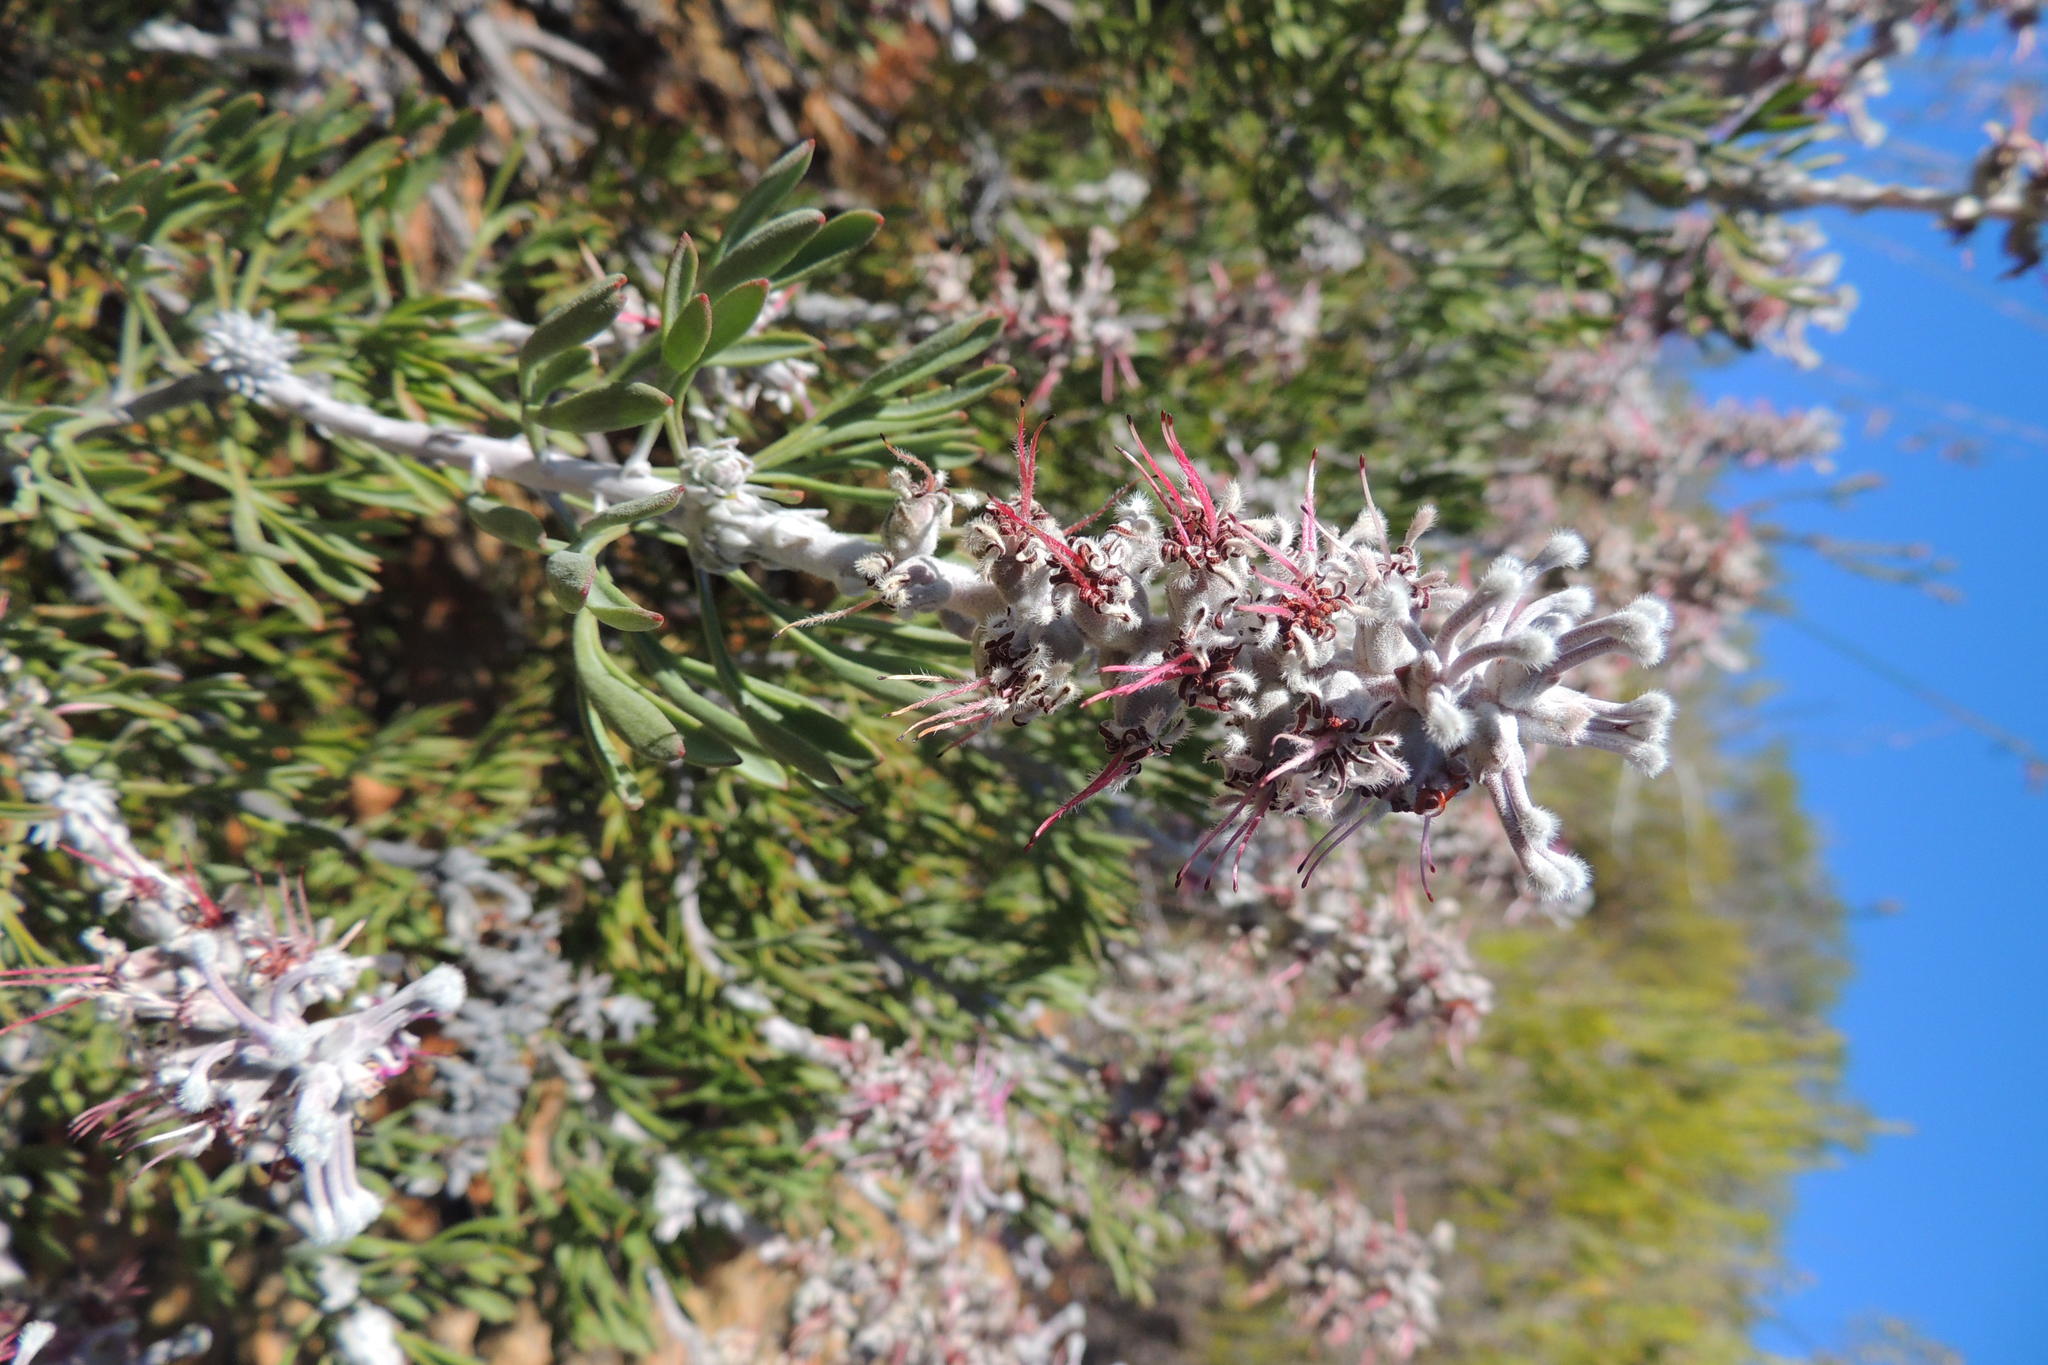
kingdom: Plantae
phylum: Tracheophyta
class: Magnoliopsida
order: Proteales
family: Proteaceae
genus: Paranomus
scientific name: Paranomus dispersus
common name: Long-head sceptre
